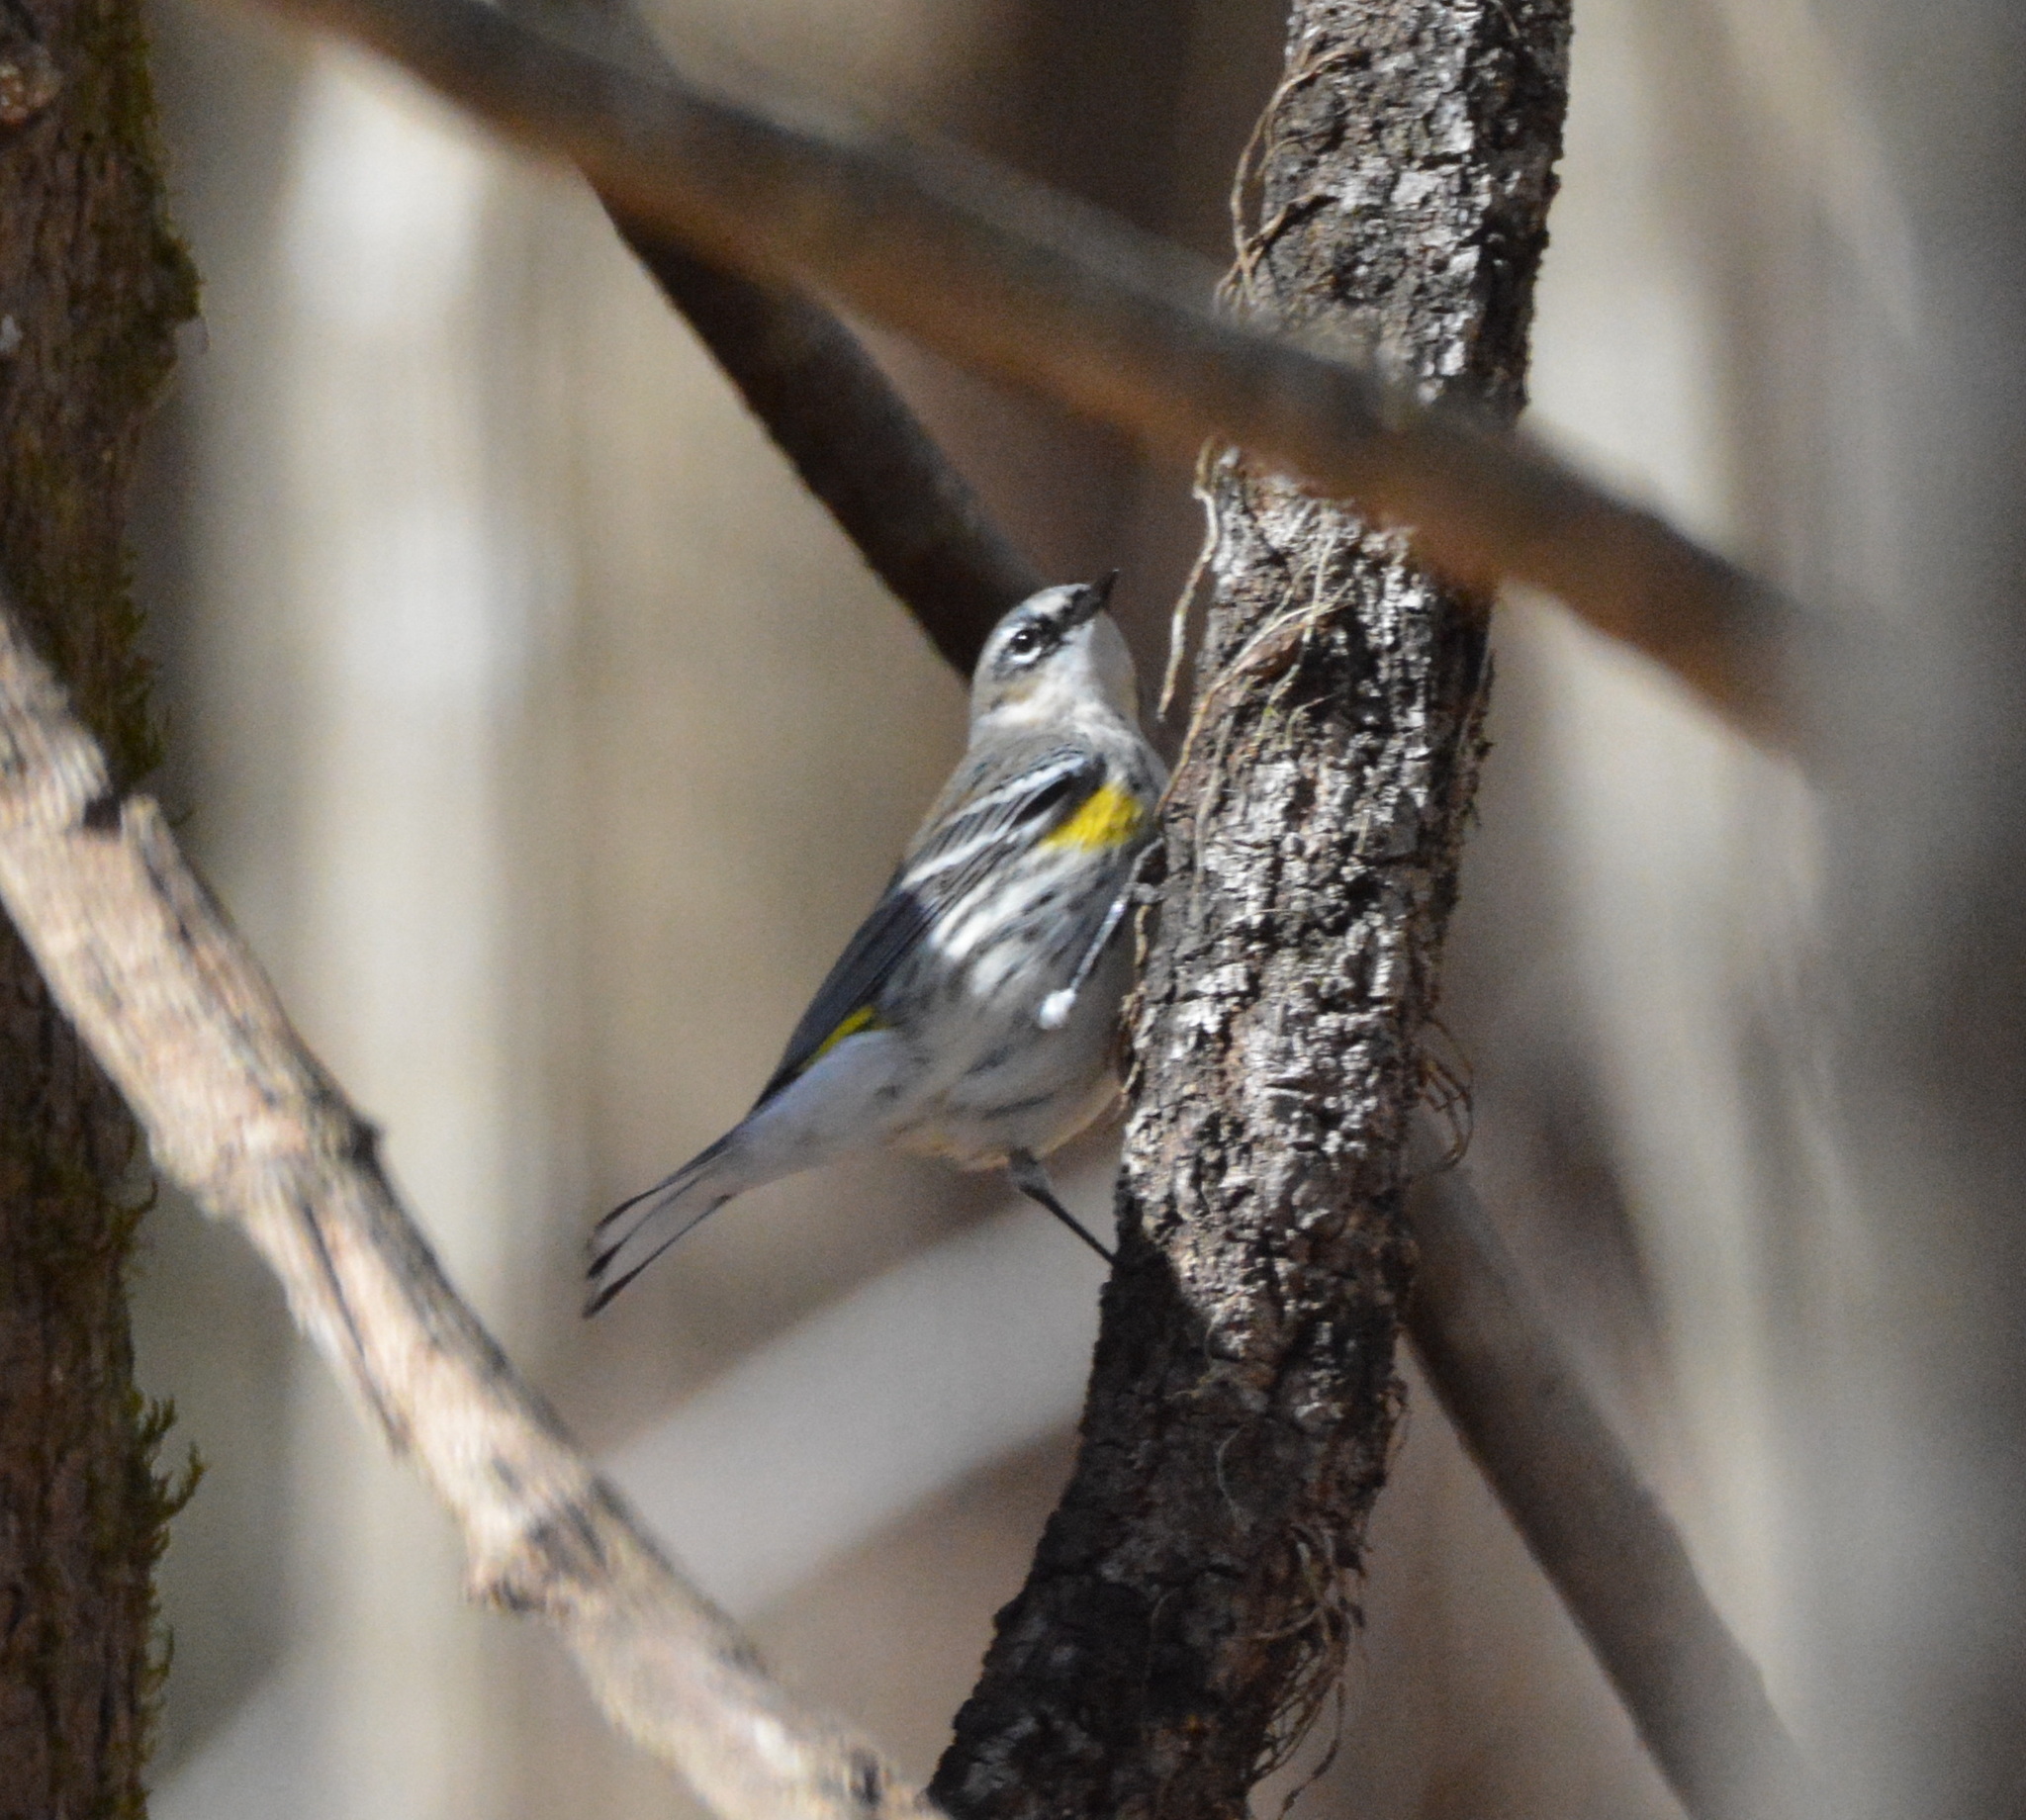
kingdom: Animalia
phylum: Chordata
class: Aves
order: Passeriformes
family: Parulidae
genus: Setophaga
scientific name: Setophaga coronata
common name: Myrtle warbler
